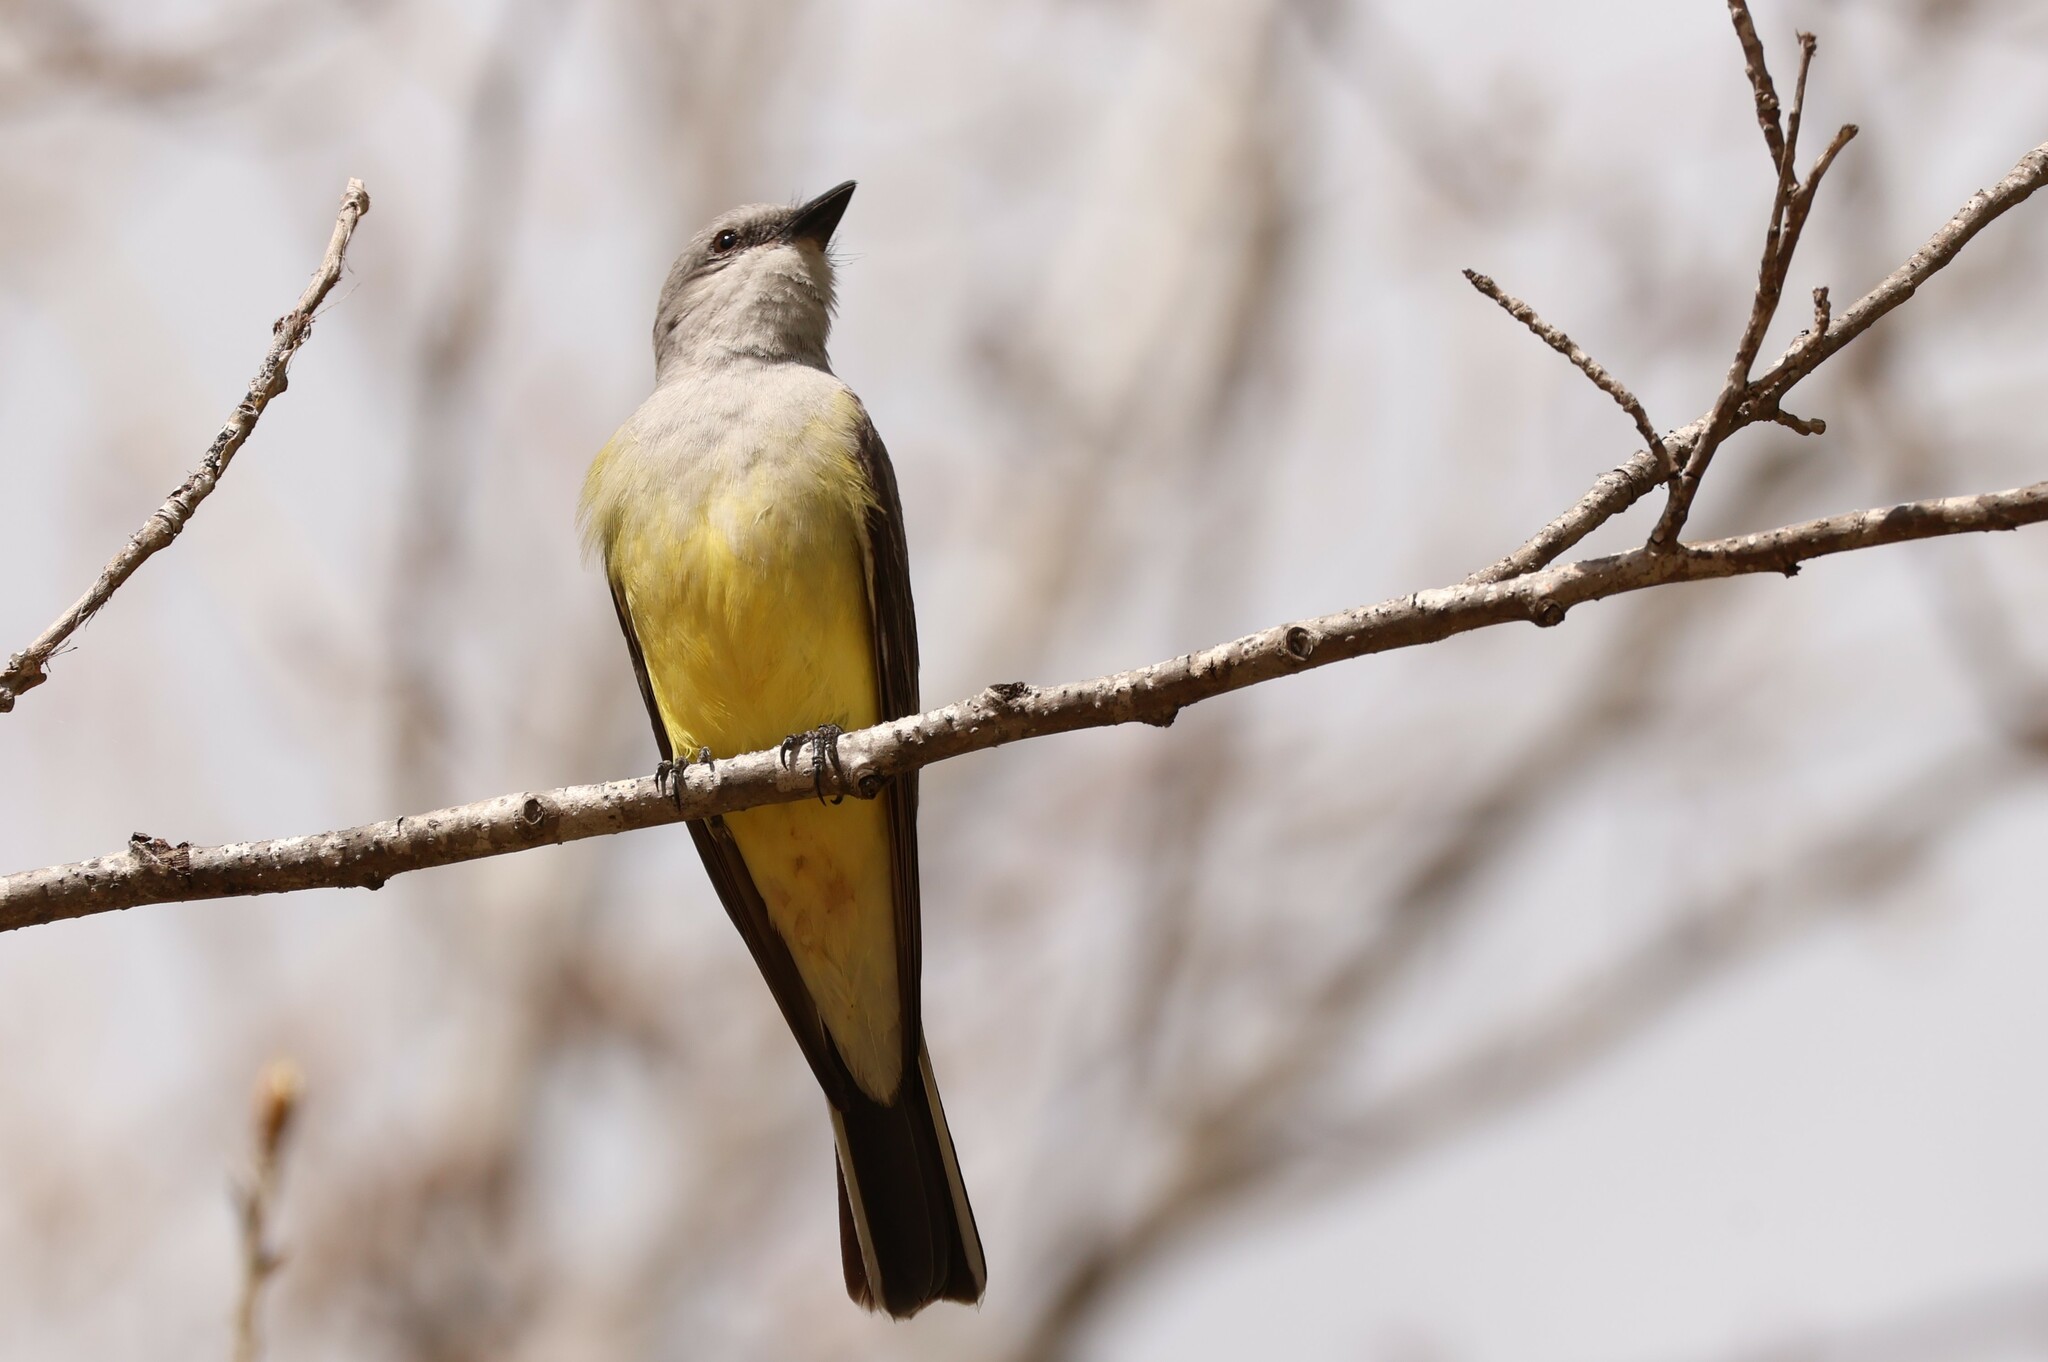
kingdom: Animalia
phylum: Chordata
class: Aves
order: Passeriformes
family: Tyrannidae
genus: Tyrannus
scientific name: Tyrannus verticalis
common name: Western kingbird
